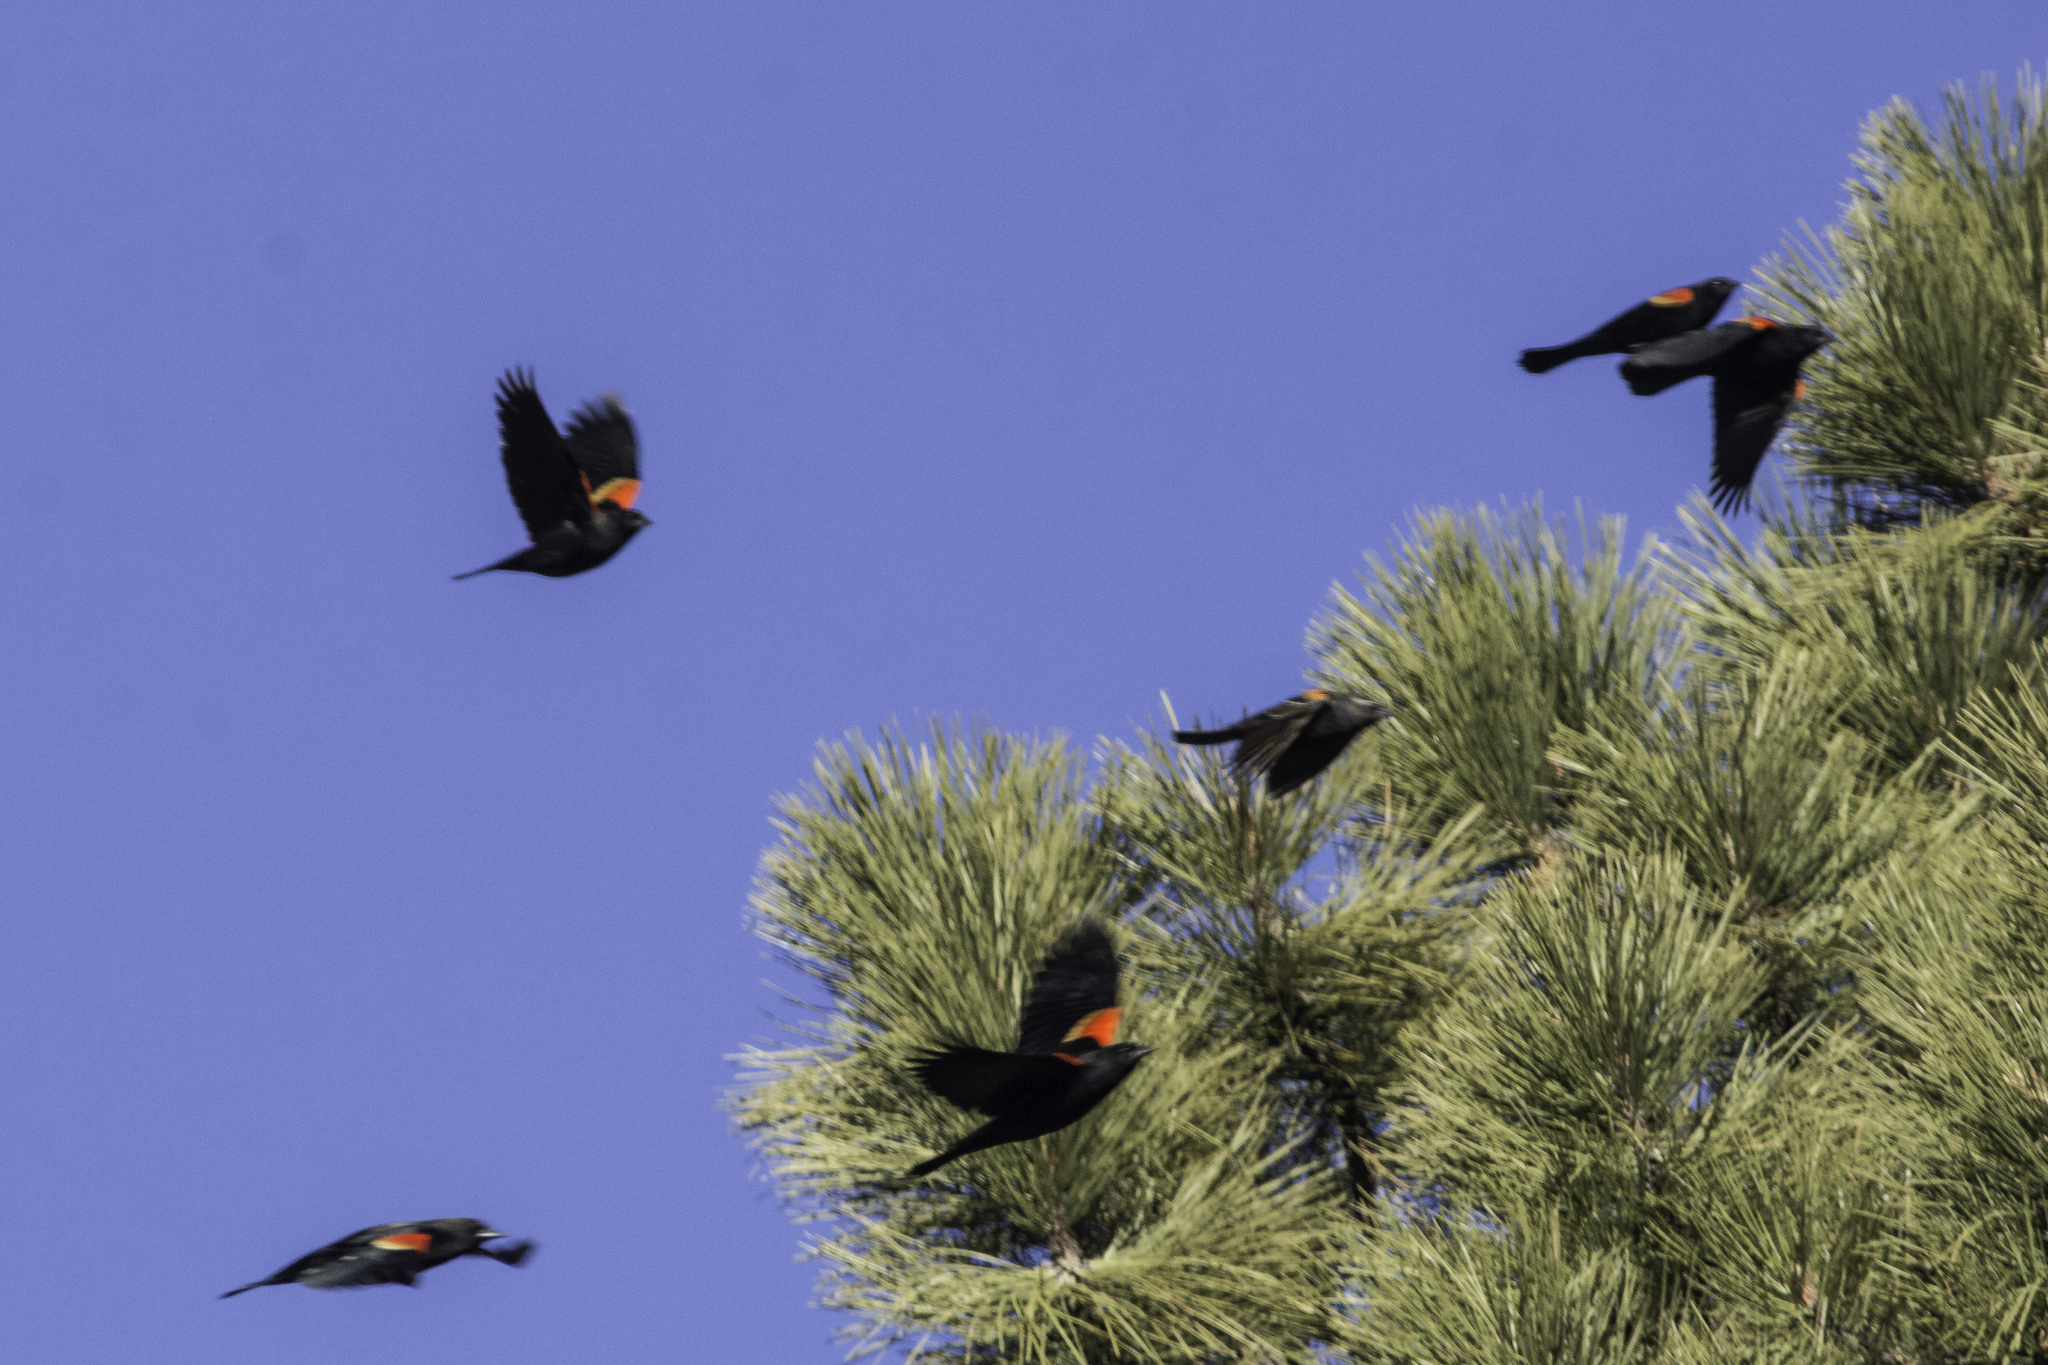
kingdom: Animalia
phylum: Chordata
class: Aves
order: Passeriformes
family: Icteridae
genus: Agelaius
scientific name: Agelaius phoeniceus
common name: Red-winged blackbird
